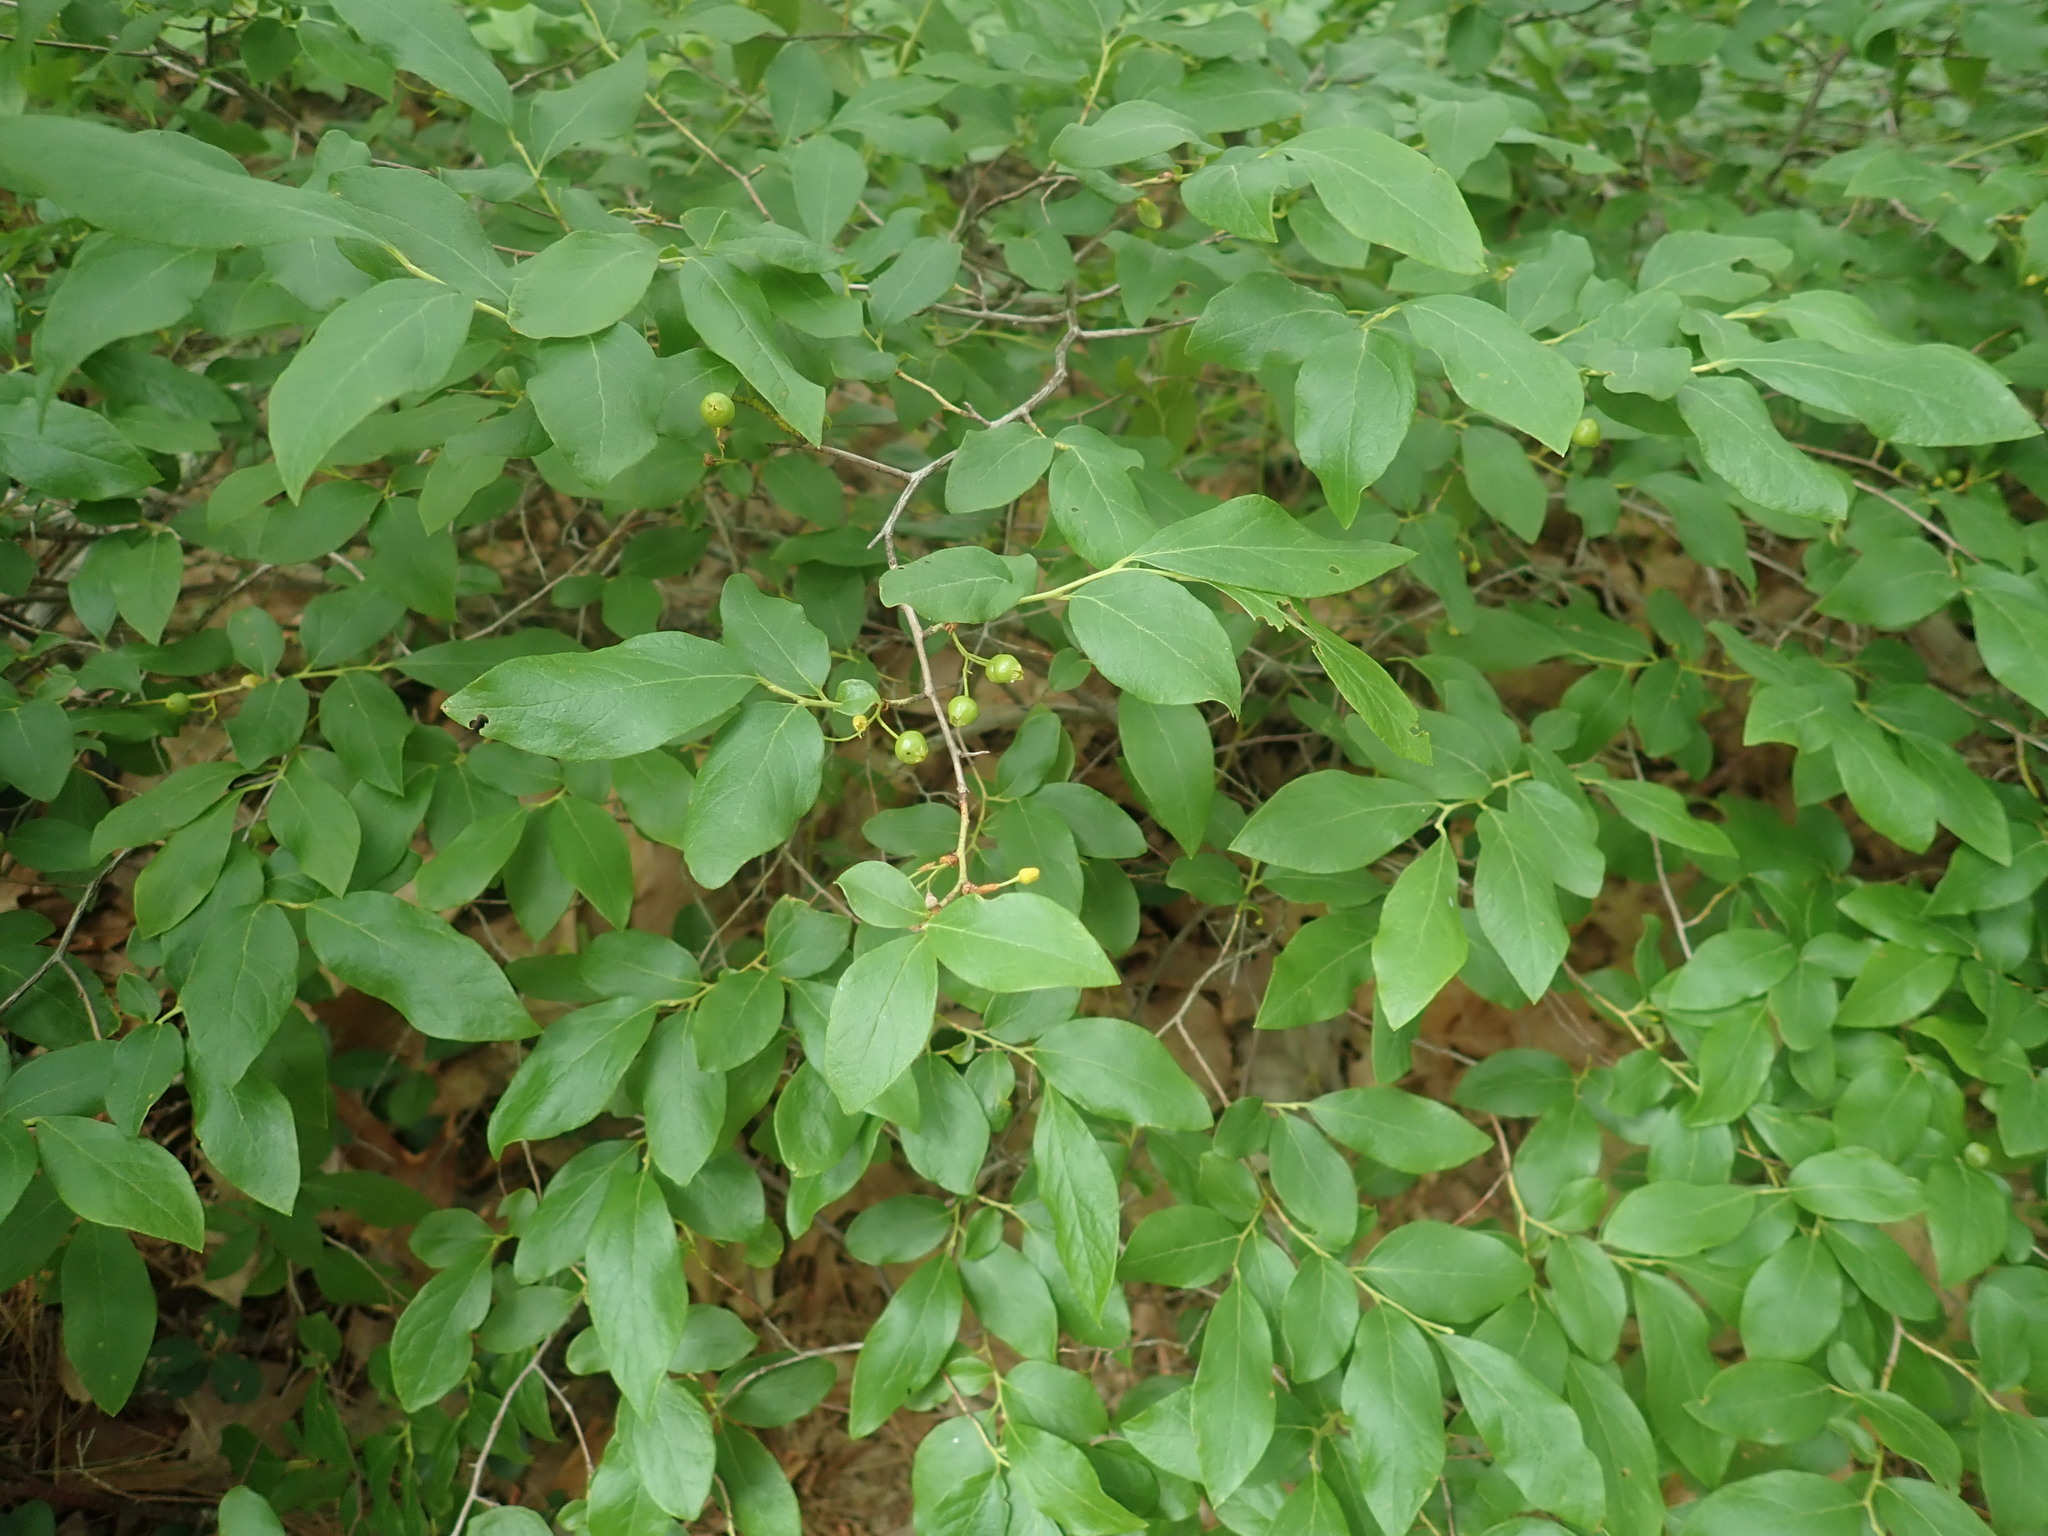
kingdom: Plantae
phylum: Tracheophyta
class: Magnoliopsida
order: Ericales
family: Ericaceae
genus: Gaylussacia
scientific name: Gaylussacia baccata
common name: Black huckleberry
